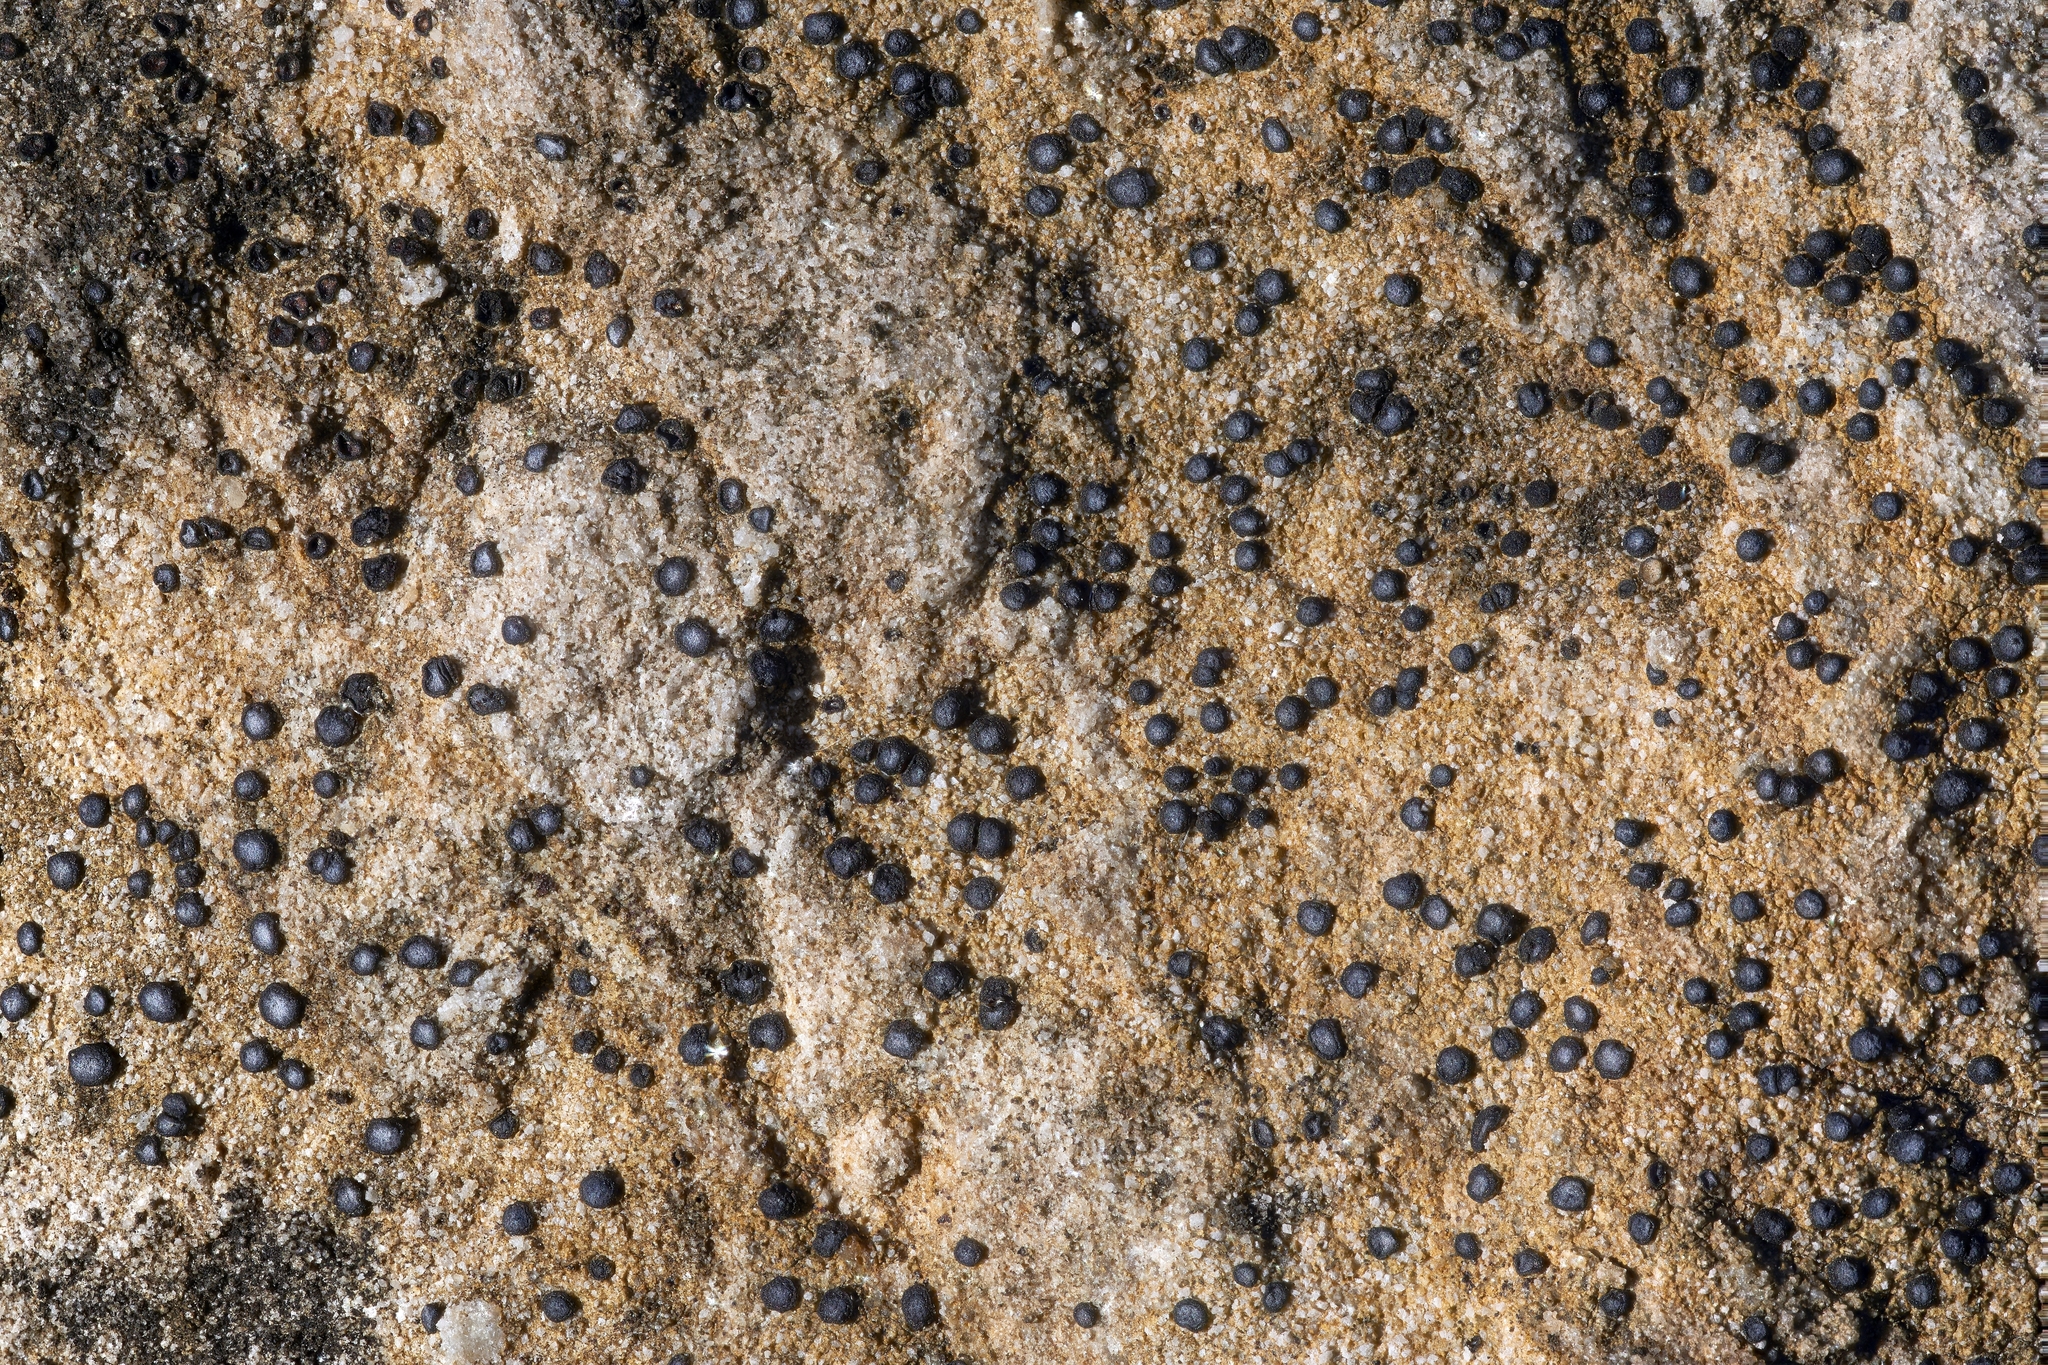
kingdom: Fungi
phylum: Ascomycota
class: Lecanoromycetes
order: Acarosporales
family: Acarosporaceae
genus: Sarcogyne
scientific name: Sarcogyne regularis
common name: Frosted grain-spored lichen
